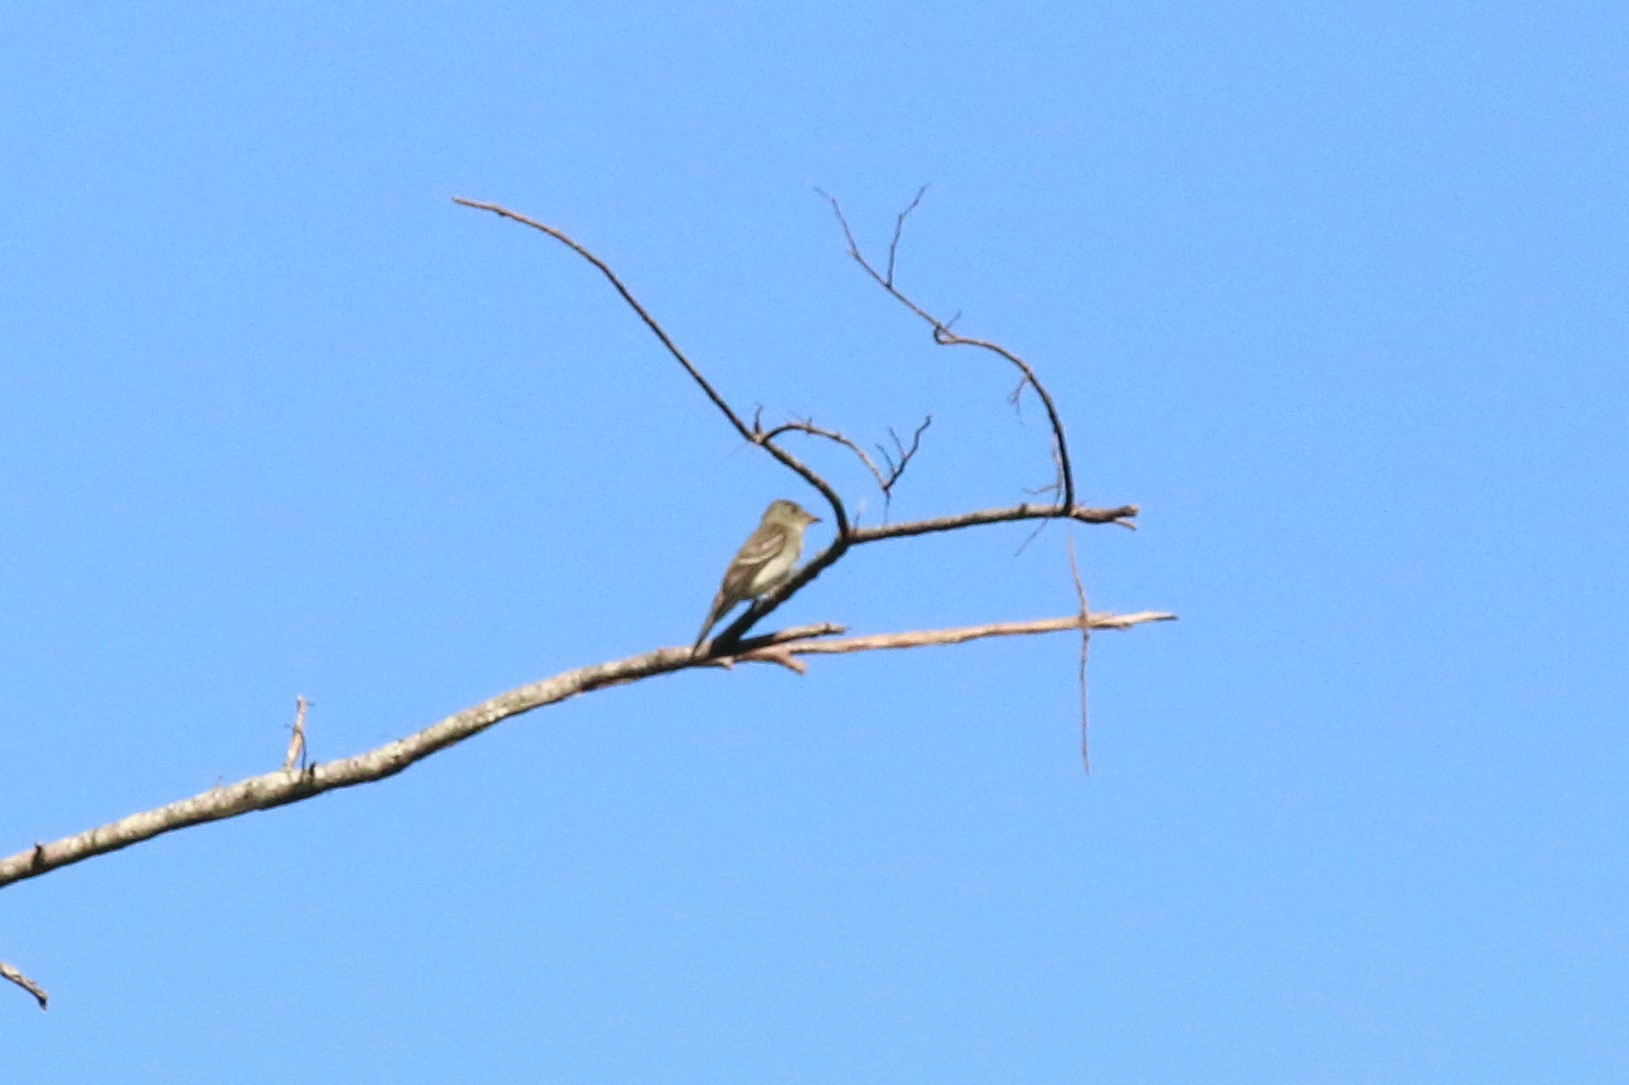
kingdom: Animalia
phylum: Chordata
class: Aves
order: Passeriformes
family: Tyrannidae
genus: Contopus
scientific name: Contopus virens
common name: Eastern wood-pewee
